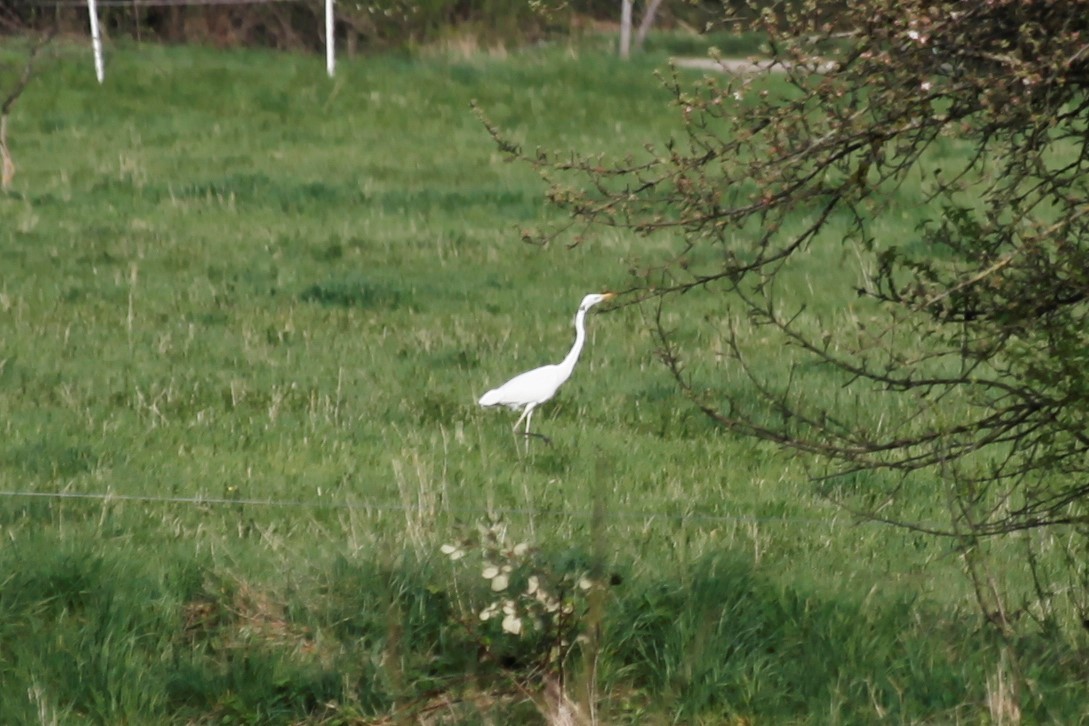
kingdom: Animalia
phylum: Chordata
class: Aves
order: Pelecaniformes
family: Ardeidae
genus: Ardea
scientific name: Ardea alba
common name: Great egret
